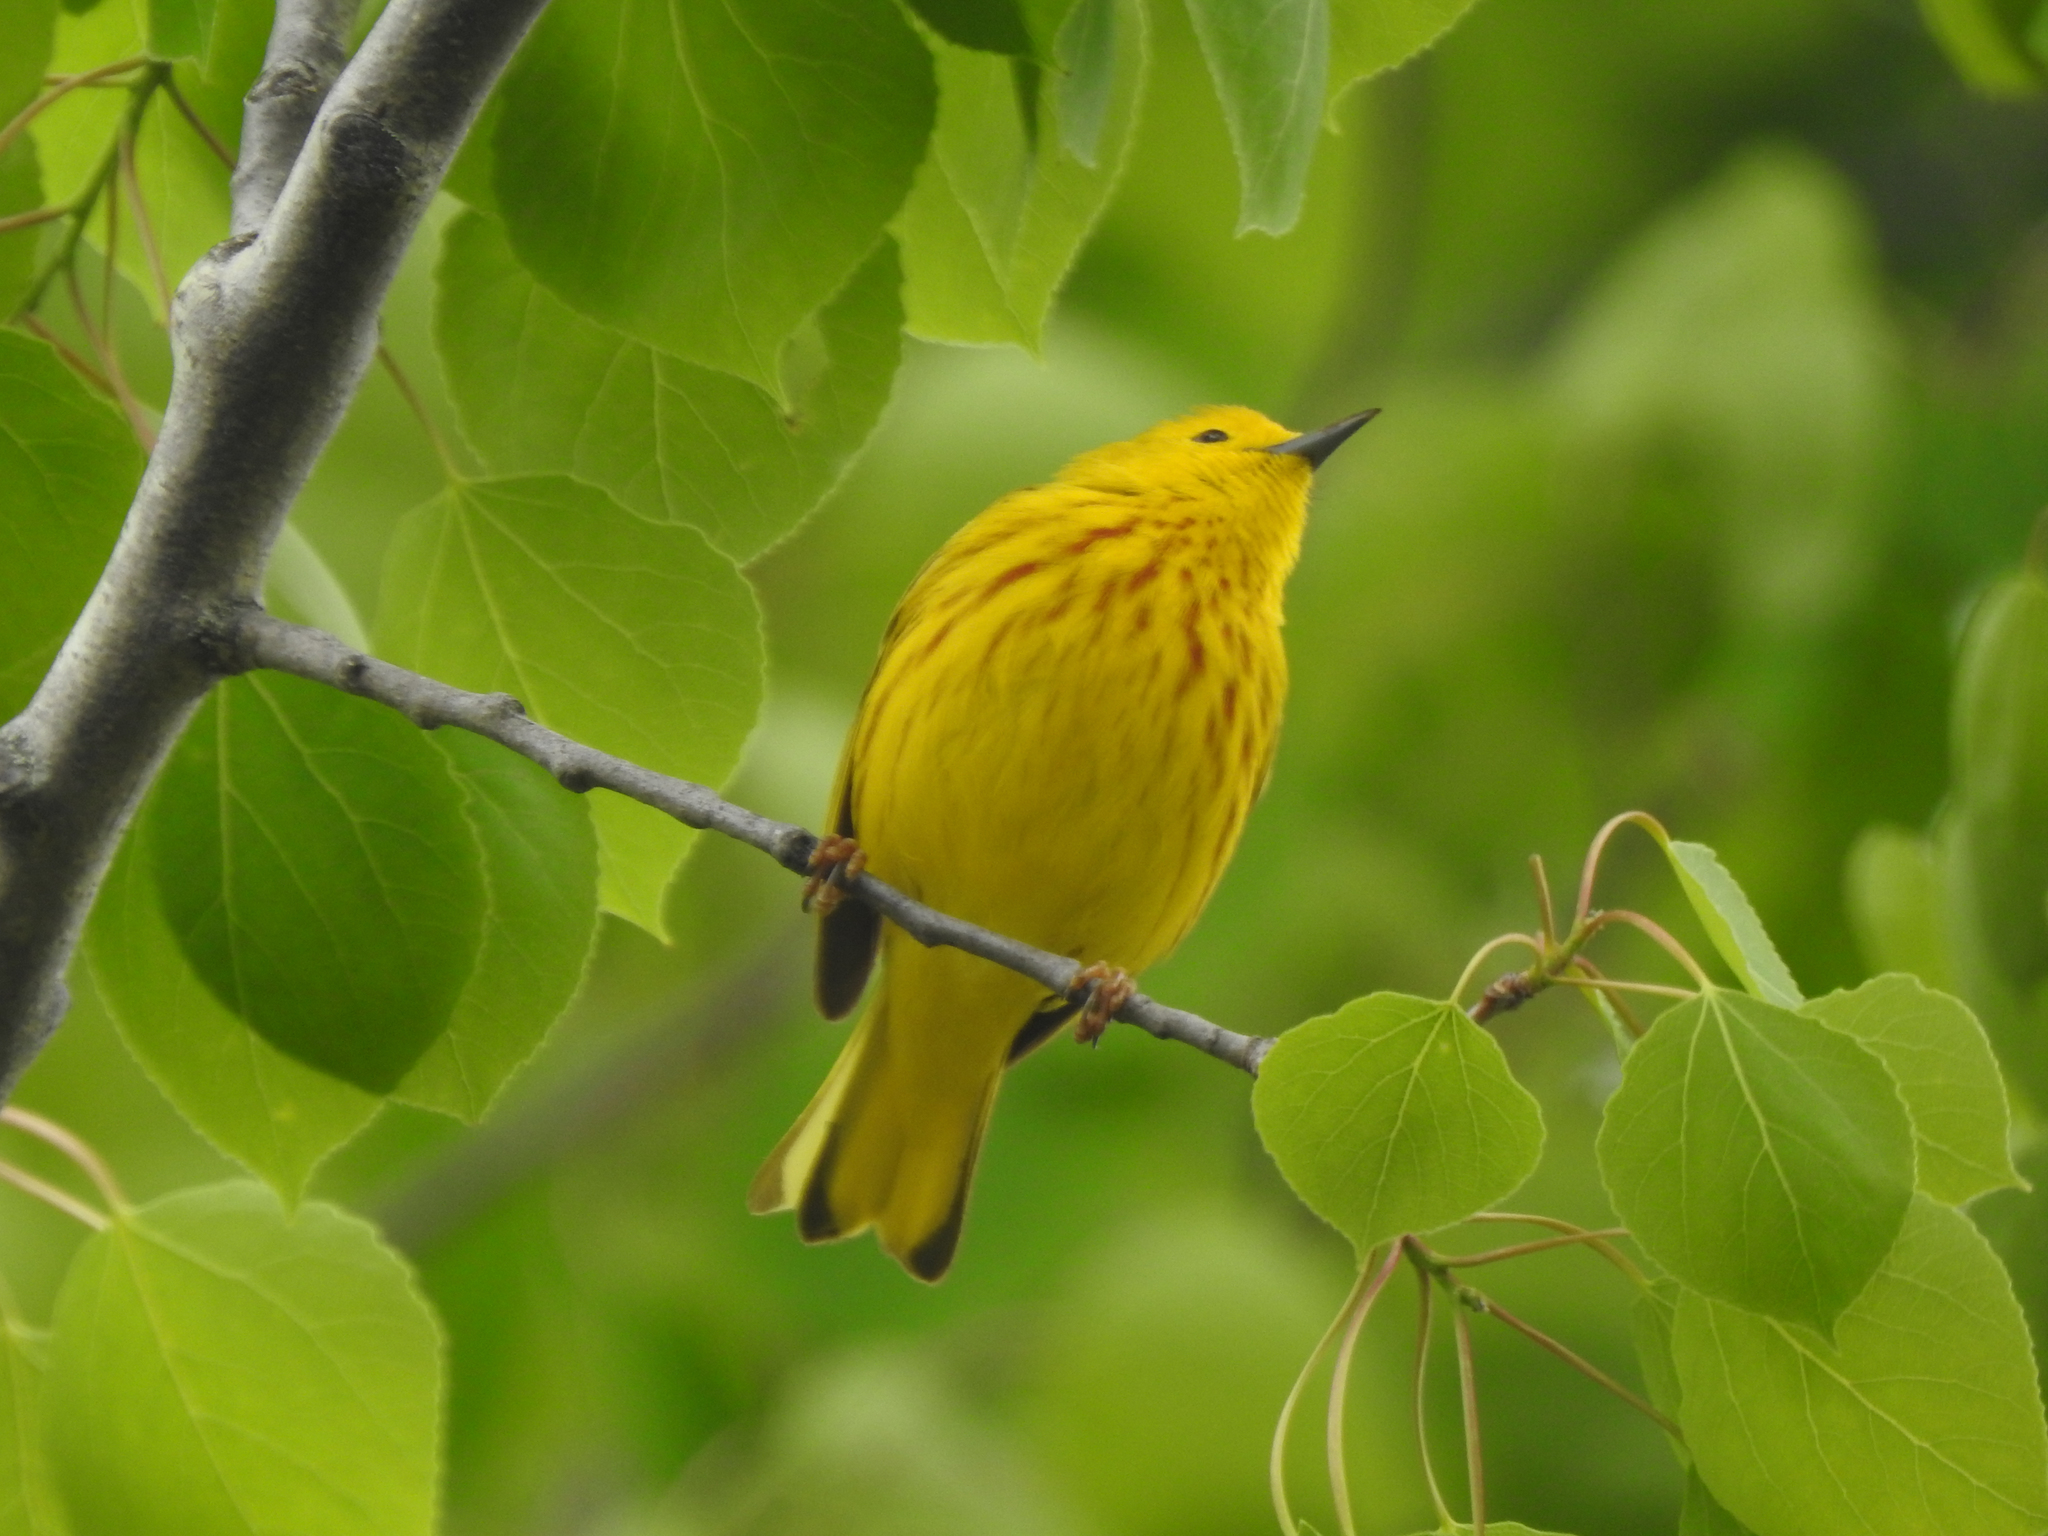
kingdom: Animalia
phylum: Chordata
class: Aves
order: Passeriformes
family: Parulidae
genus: Setophaga
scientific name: Setophaga petechia
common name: Yellow warbler
